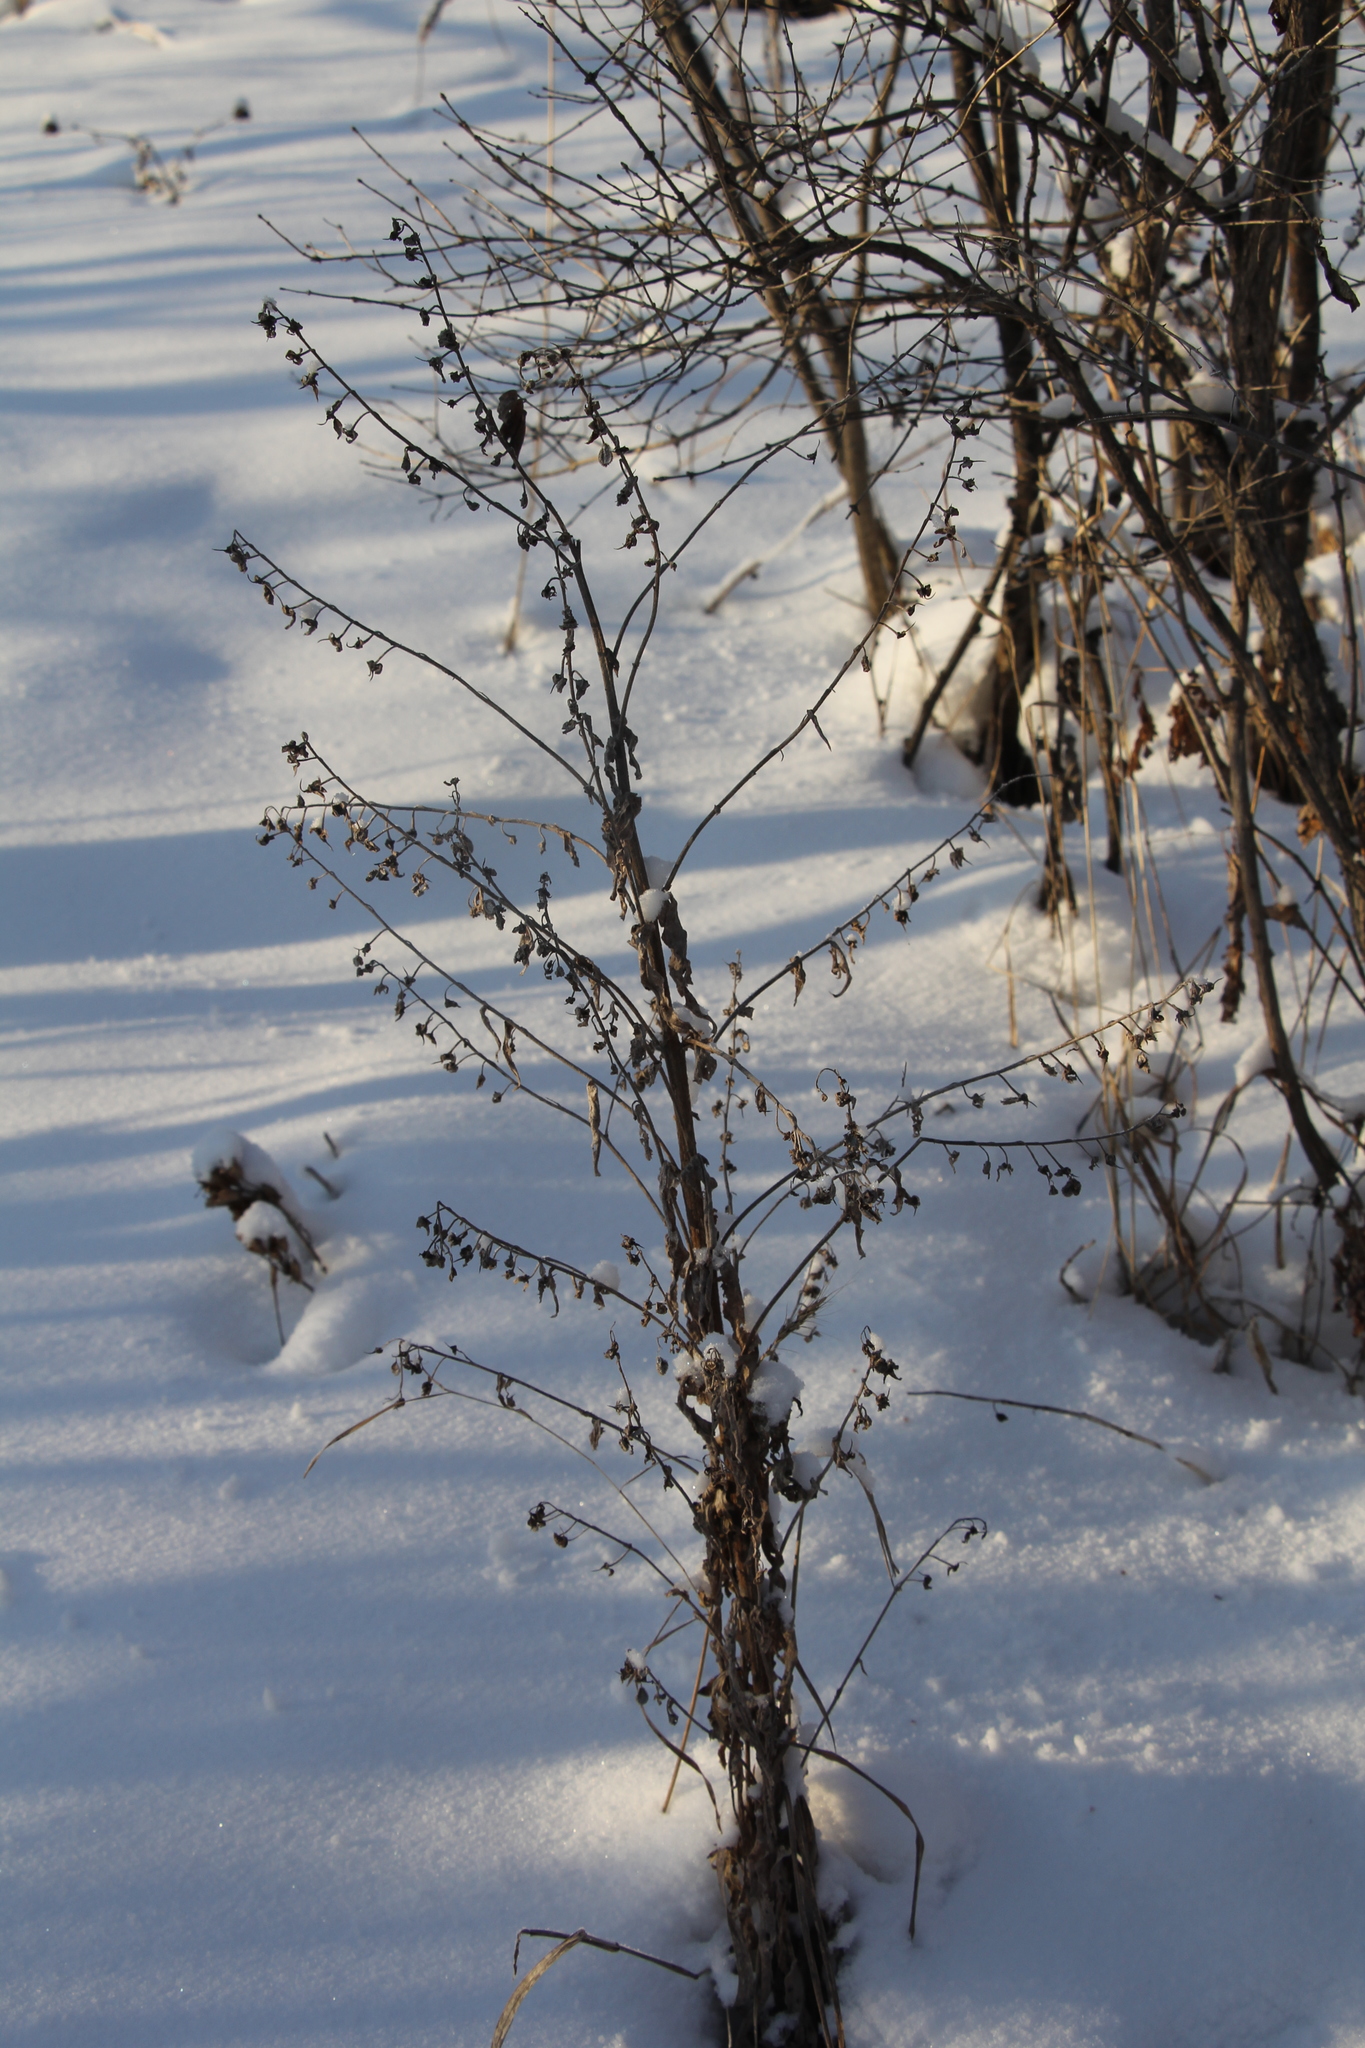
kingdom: Plantae
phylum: Tracheophyta
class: Magnoliopsida
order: Boraginales
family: Boraginaceae
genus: Cynoglossum
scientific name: Cynoglossum officinale
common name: Hound's-tongue
